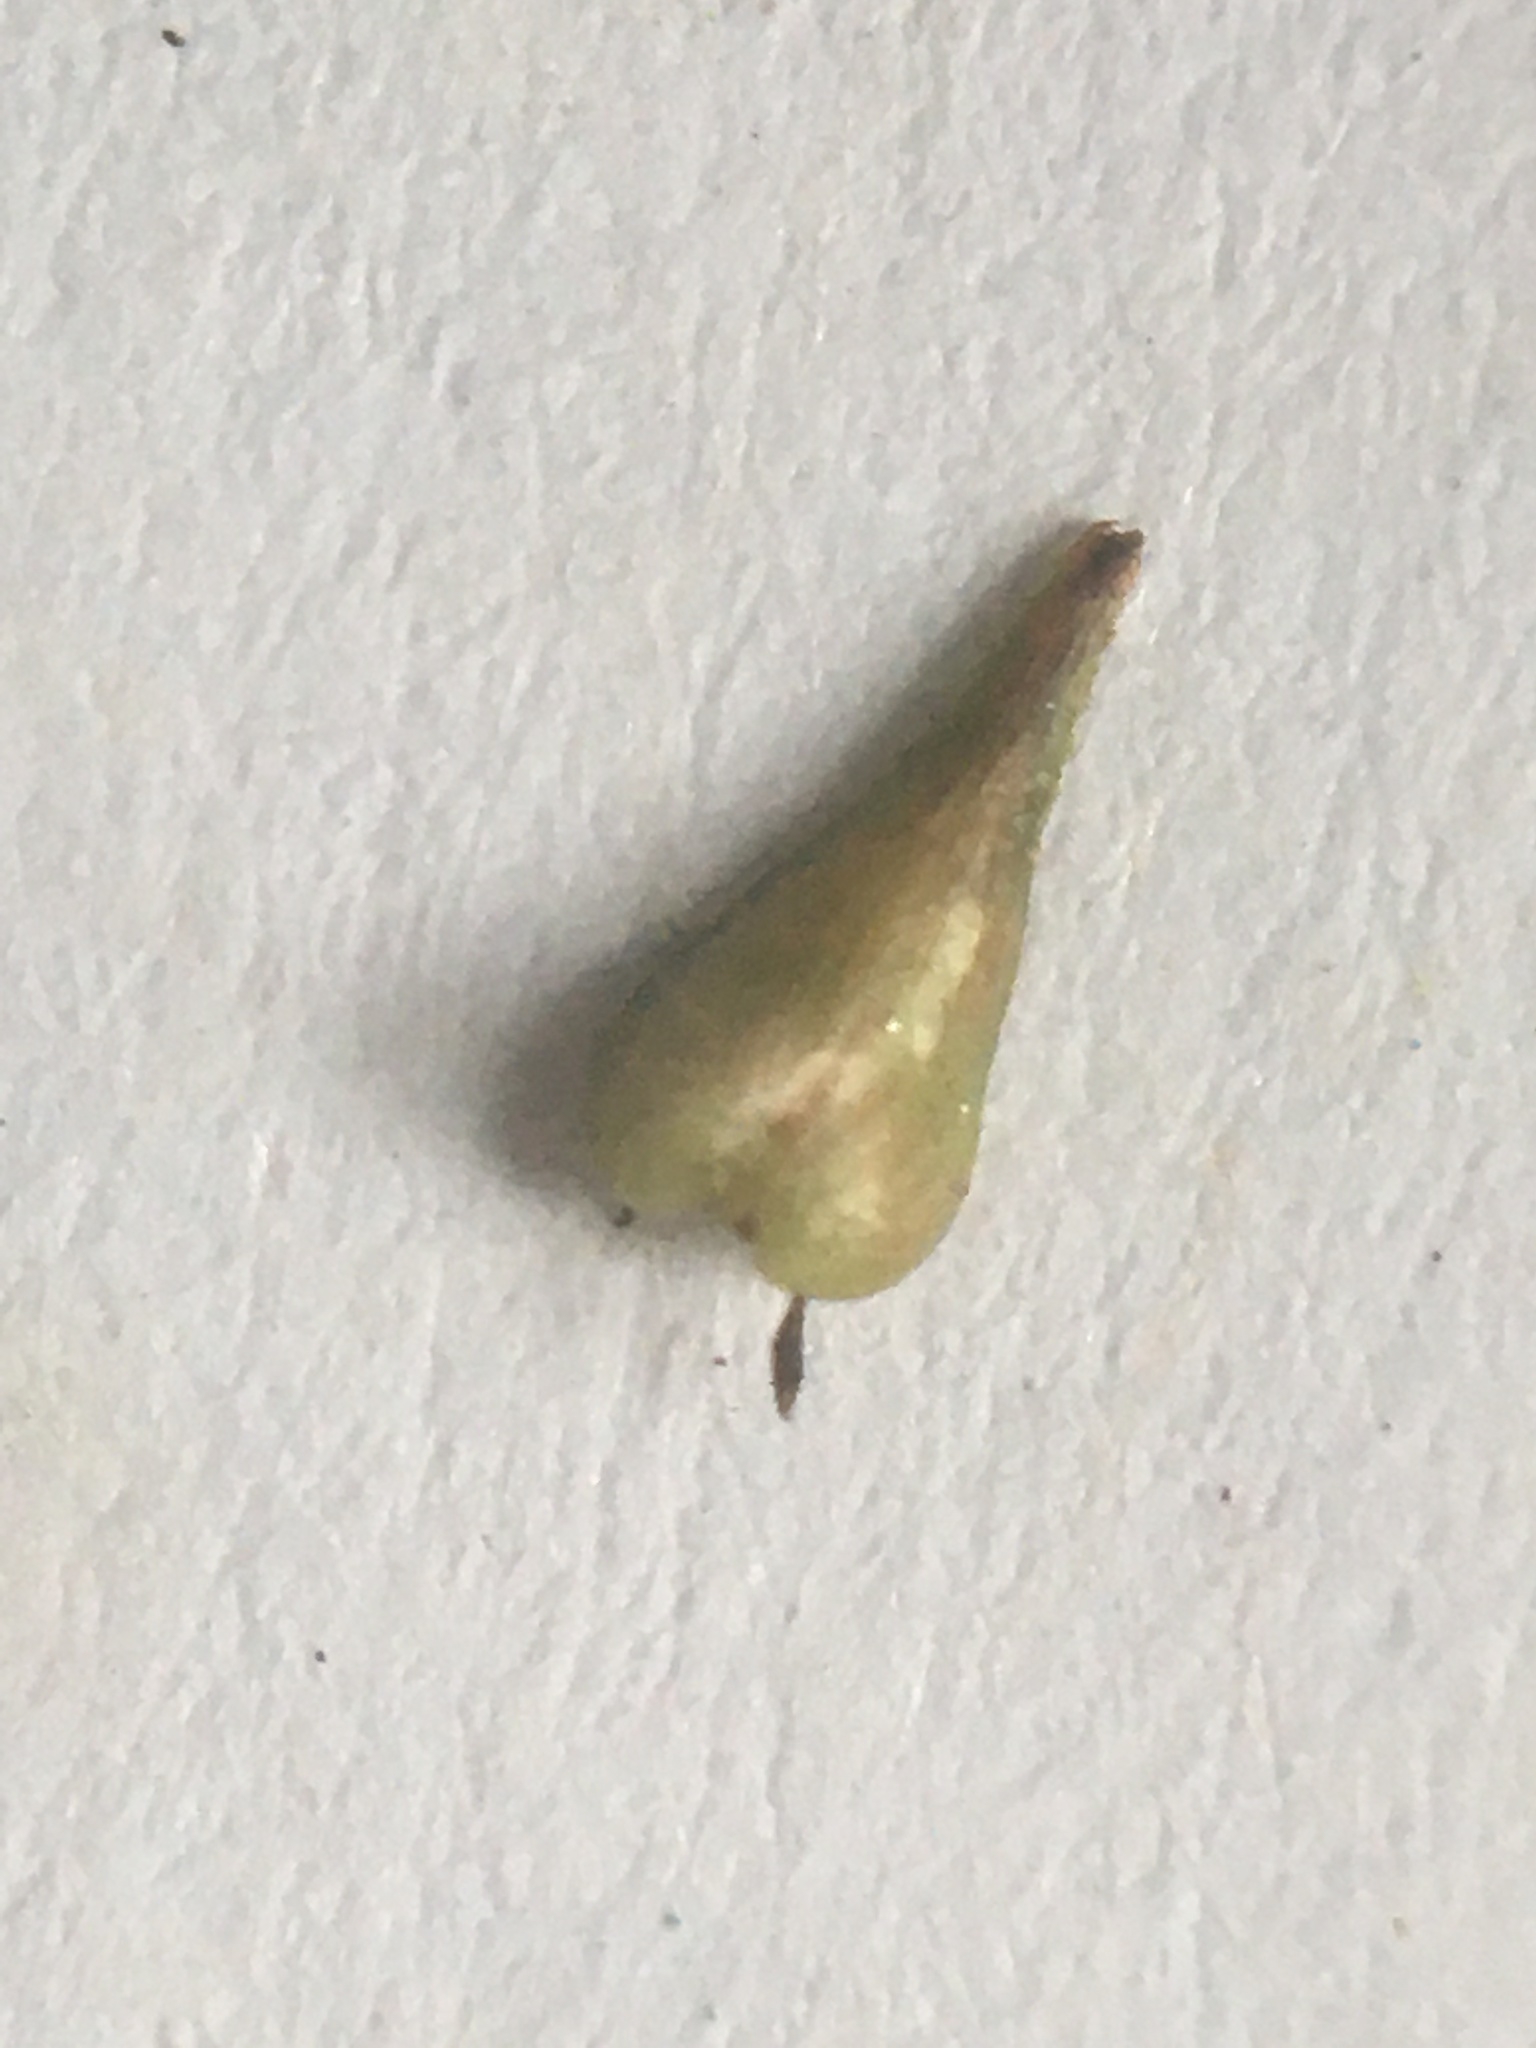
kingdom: Plantae
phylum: Tracheophyta
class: Liliopsida
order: Poales
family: Cyperaceae
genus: Carex
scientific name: Carex echinata
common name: Star sedge
